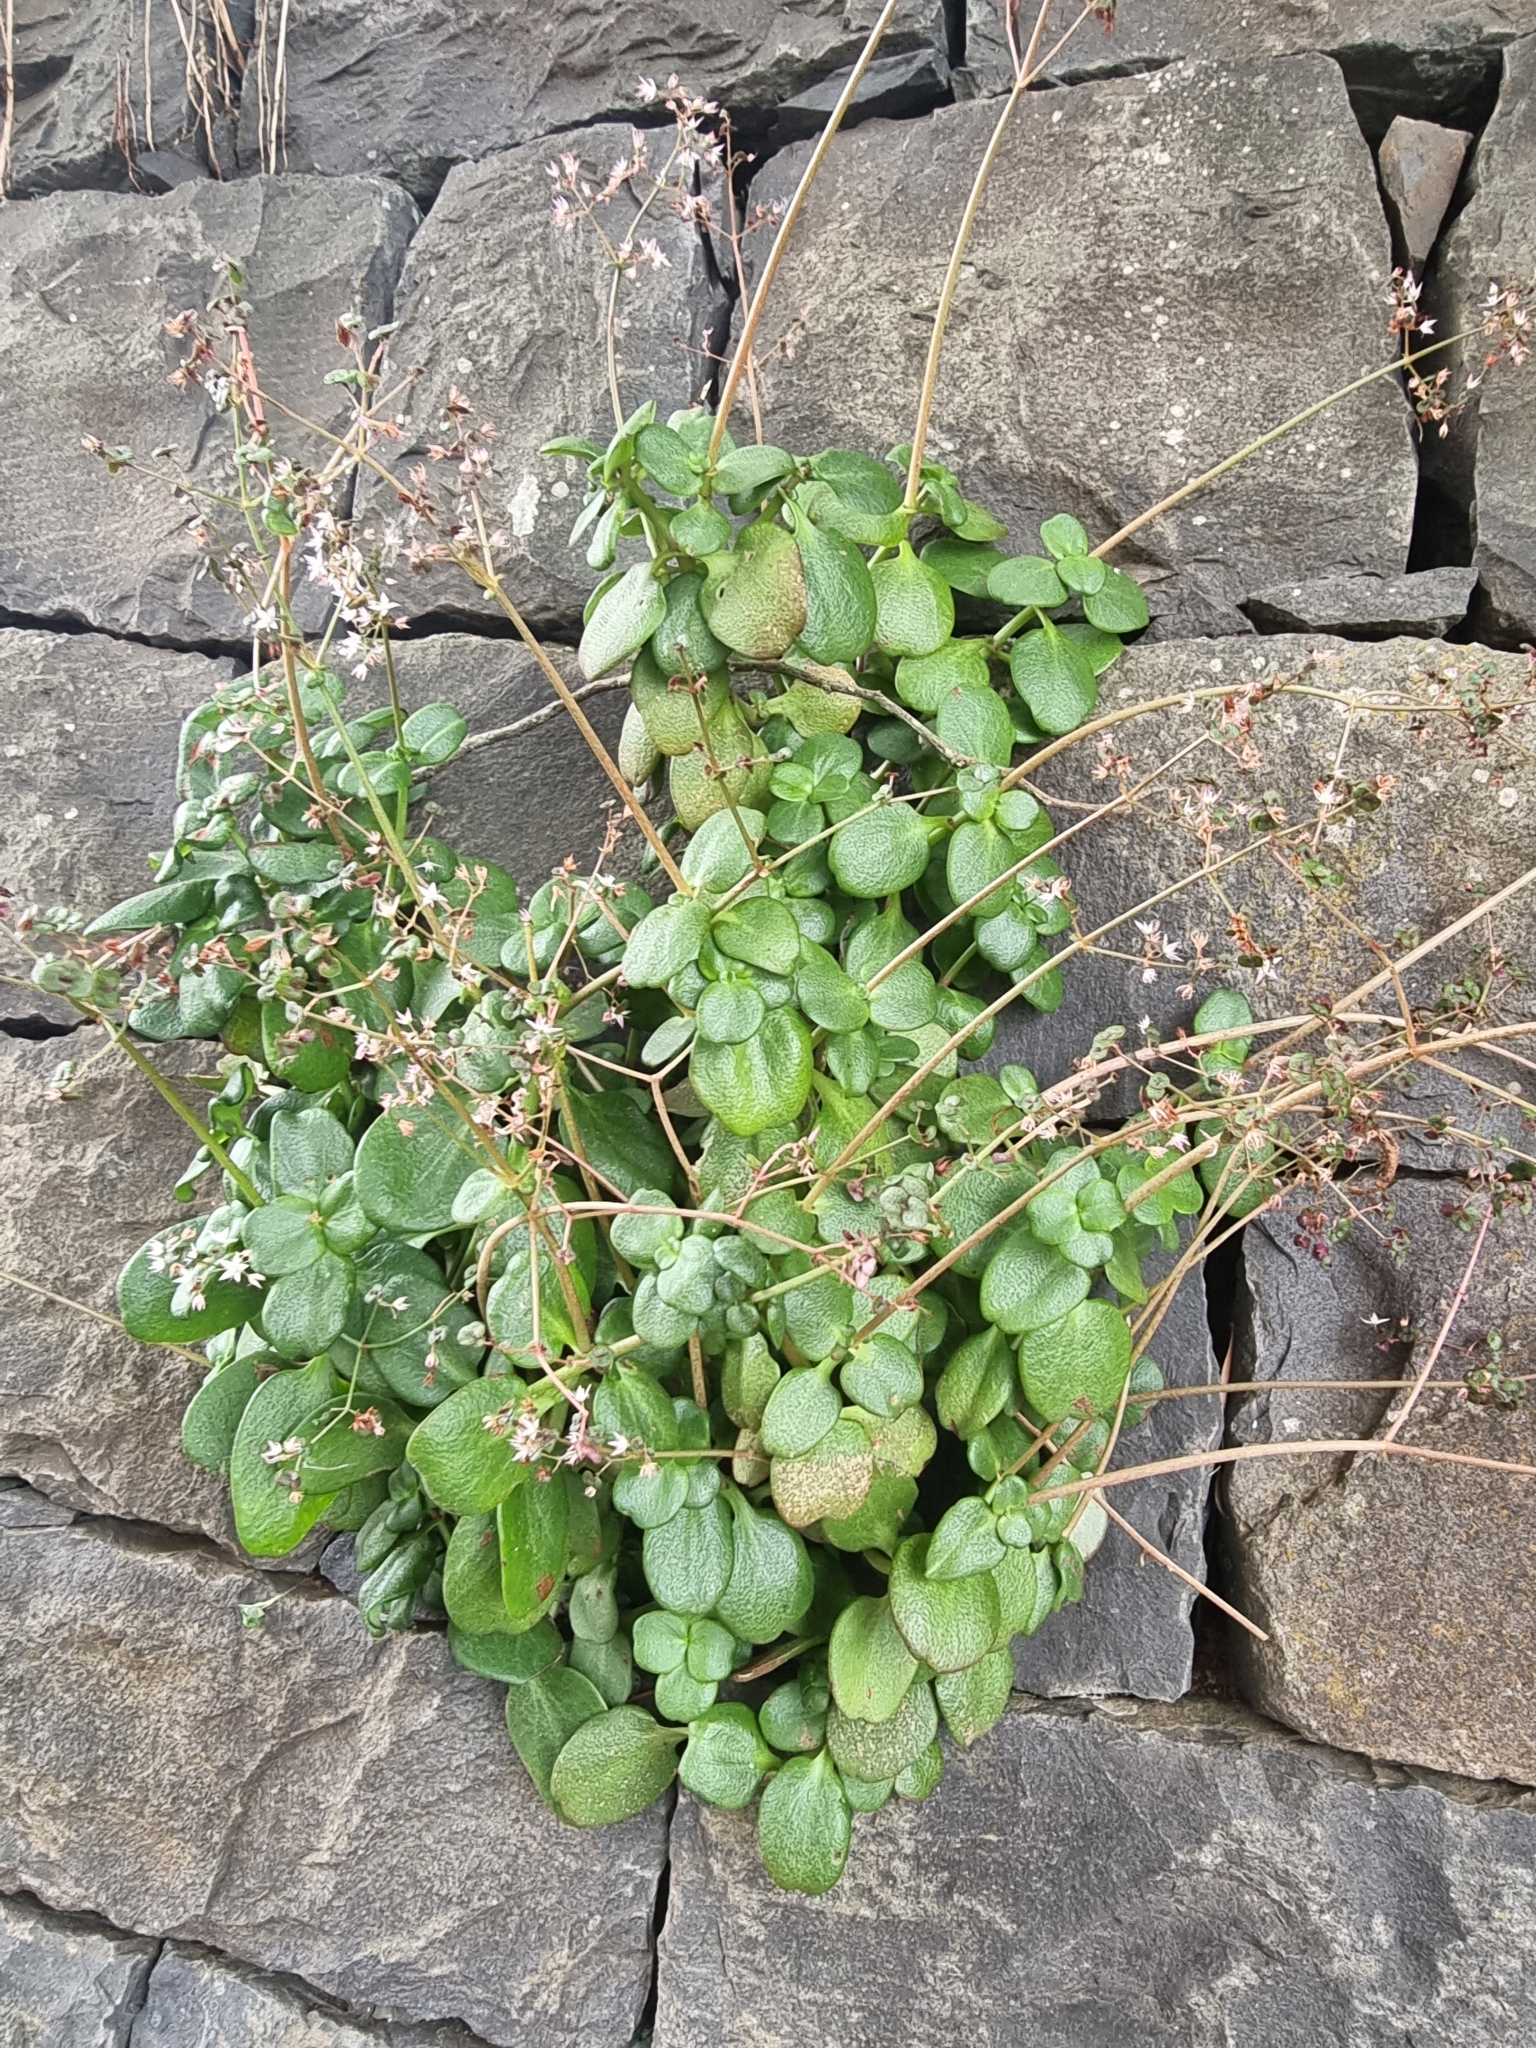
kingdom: Plantae
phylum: Tracheophyta
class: Magnoliopsida
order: Saxifragales
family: Crassulaceae
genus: Crassula
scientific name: Crassula multicava
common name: Cape province pygmyweed
